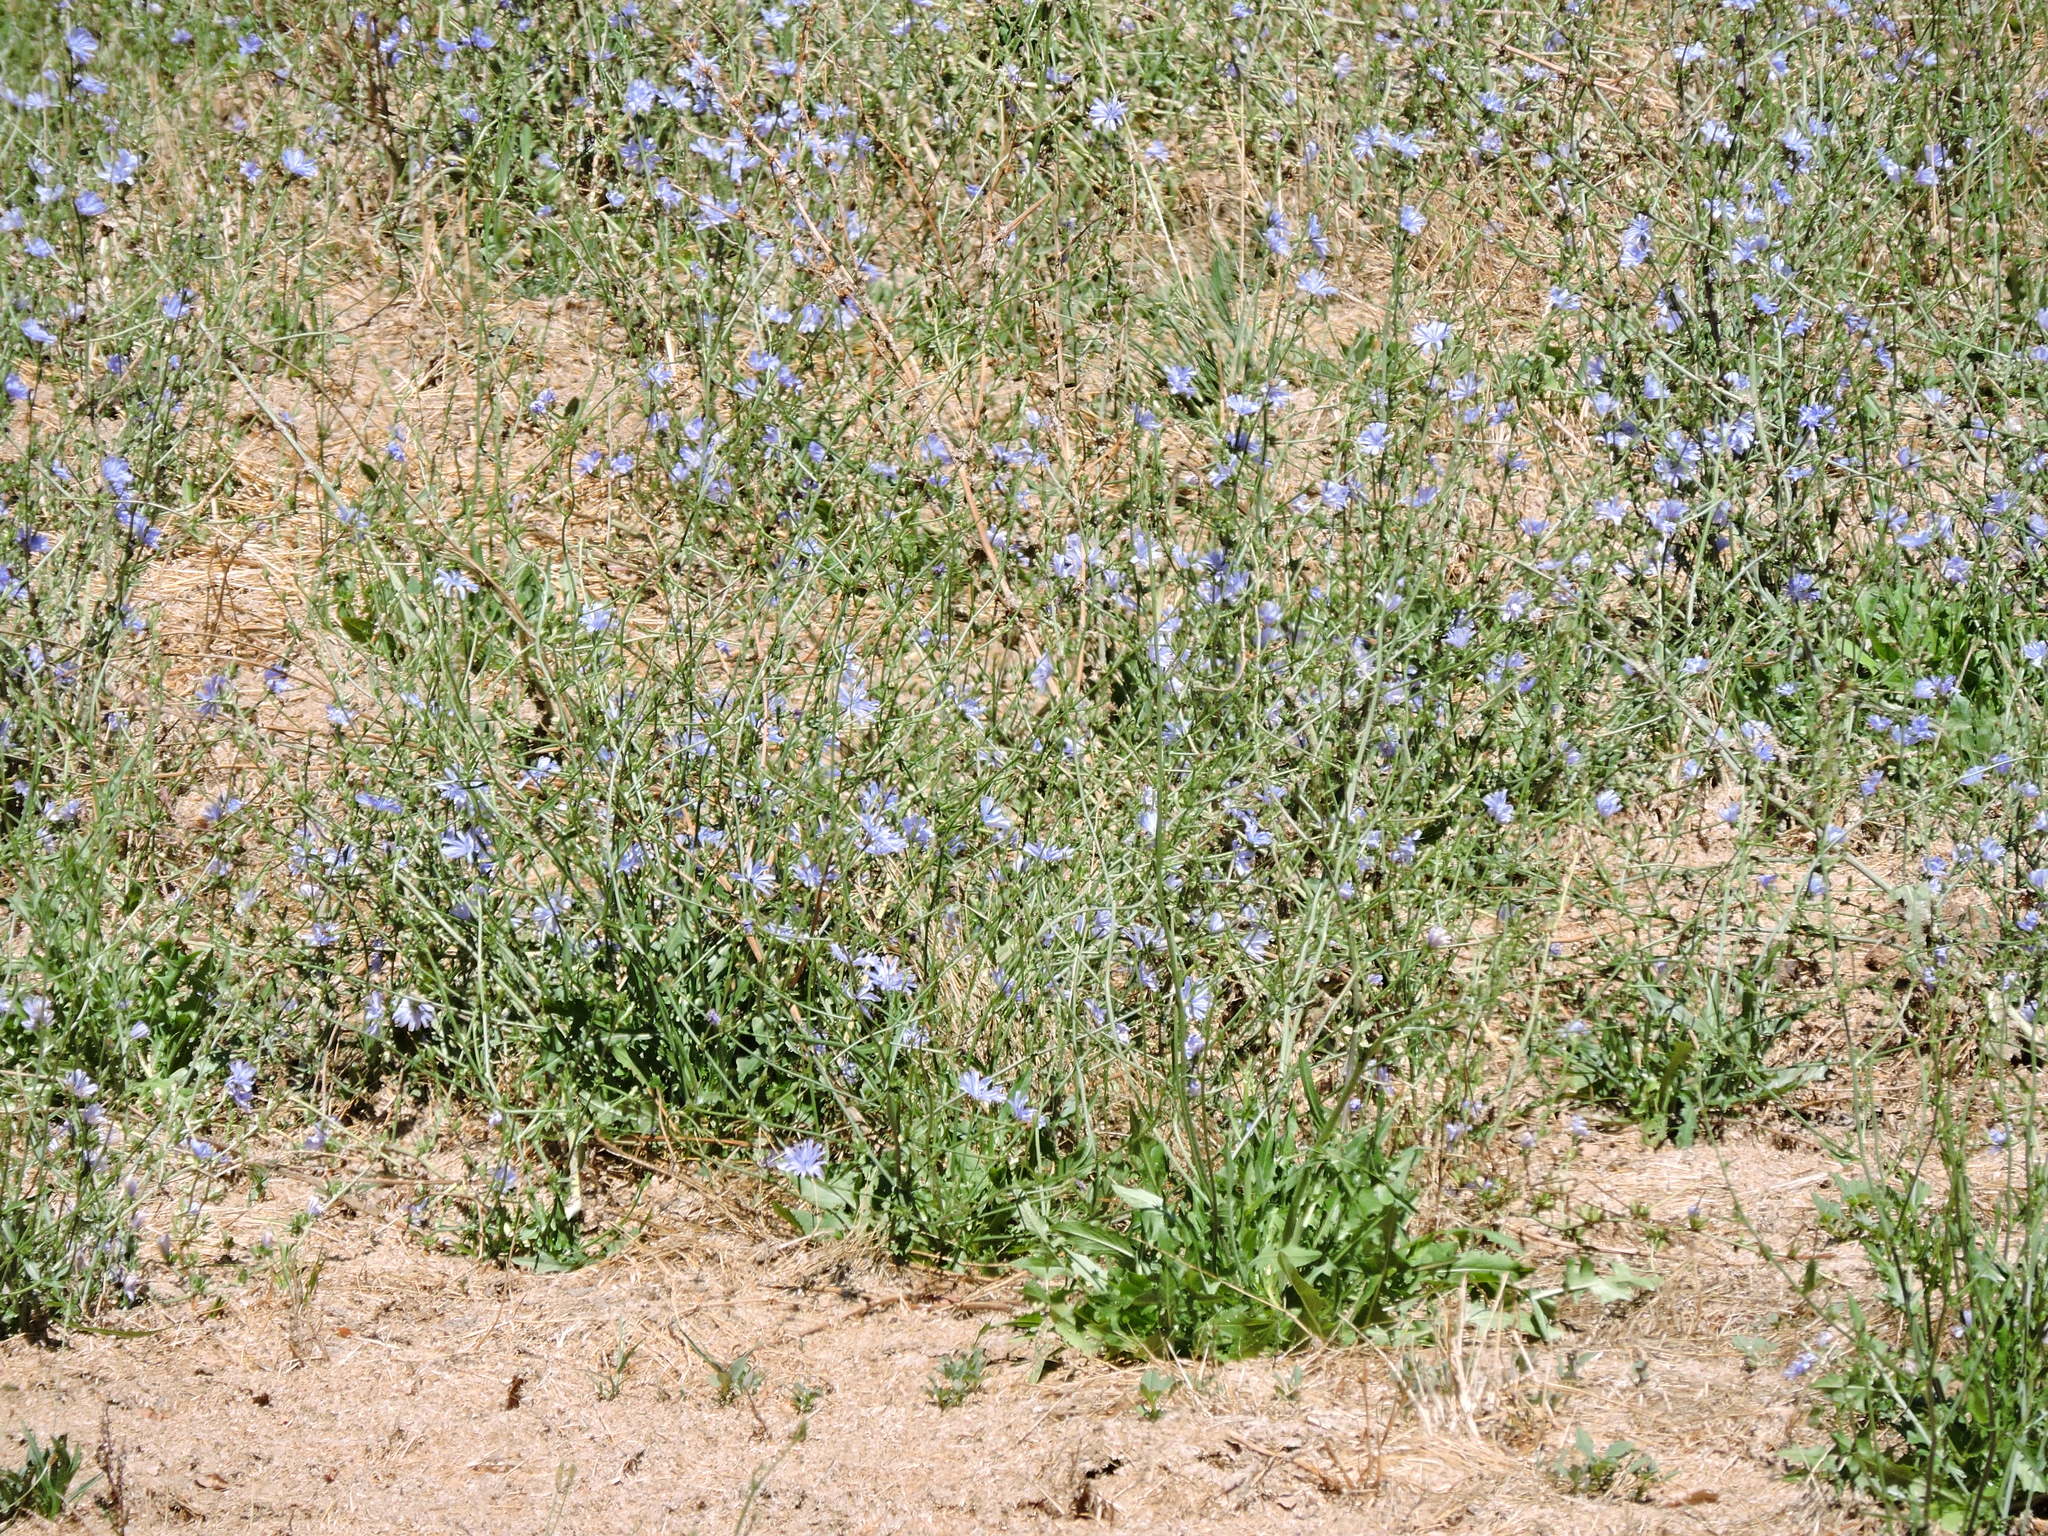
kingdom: Plantae
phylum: Tracheophyta
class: Magnoliopsida
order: Asterales
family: Asteraceae
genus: Cichorium
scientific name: Cichorium intybus
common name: Chicory
